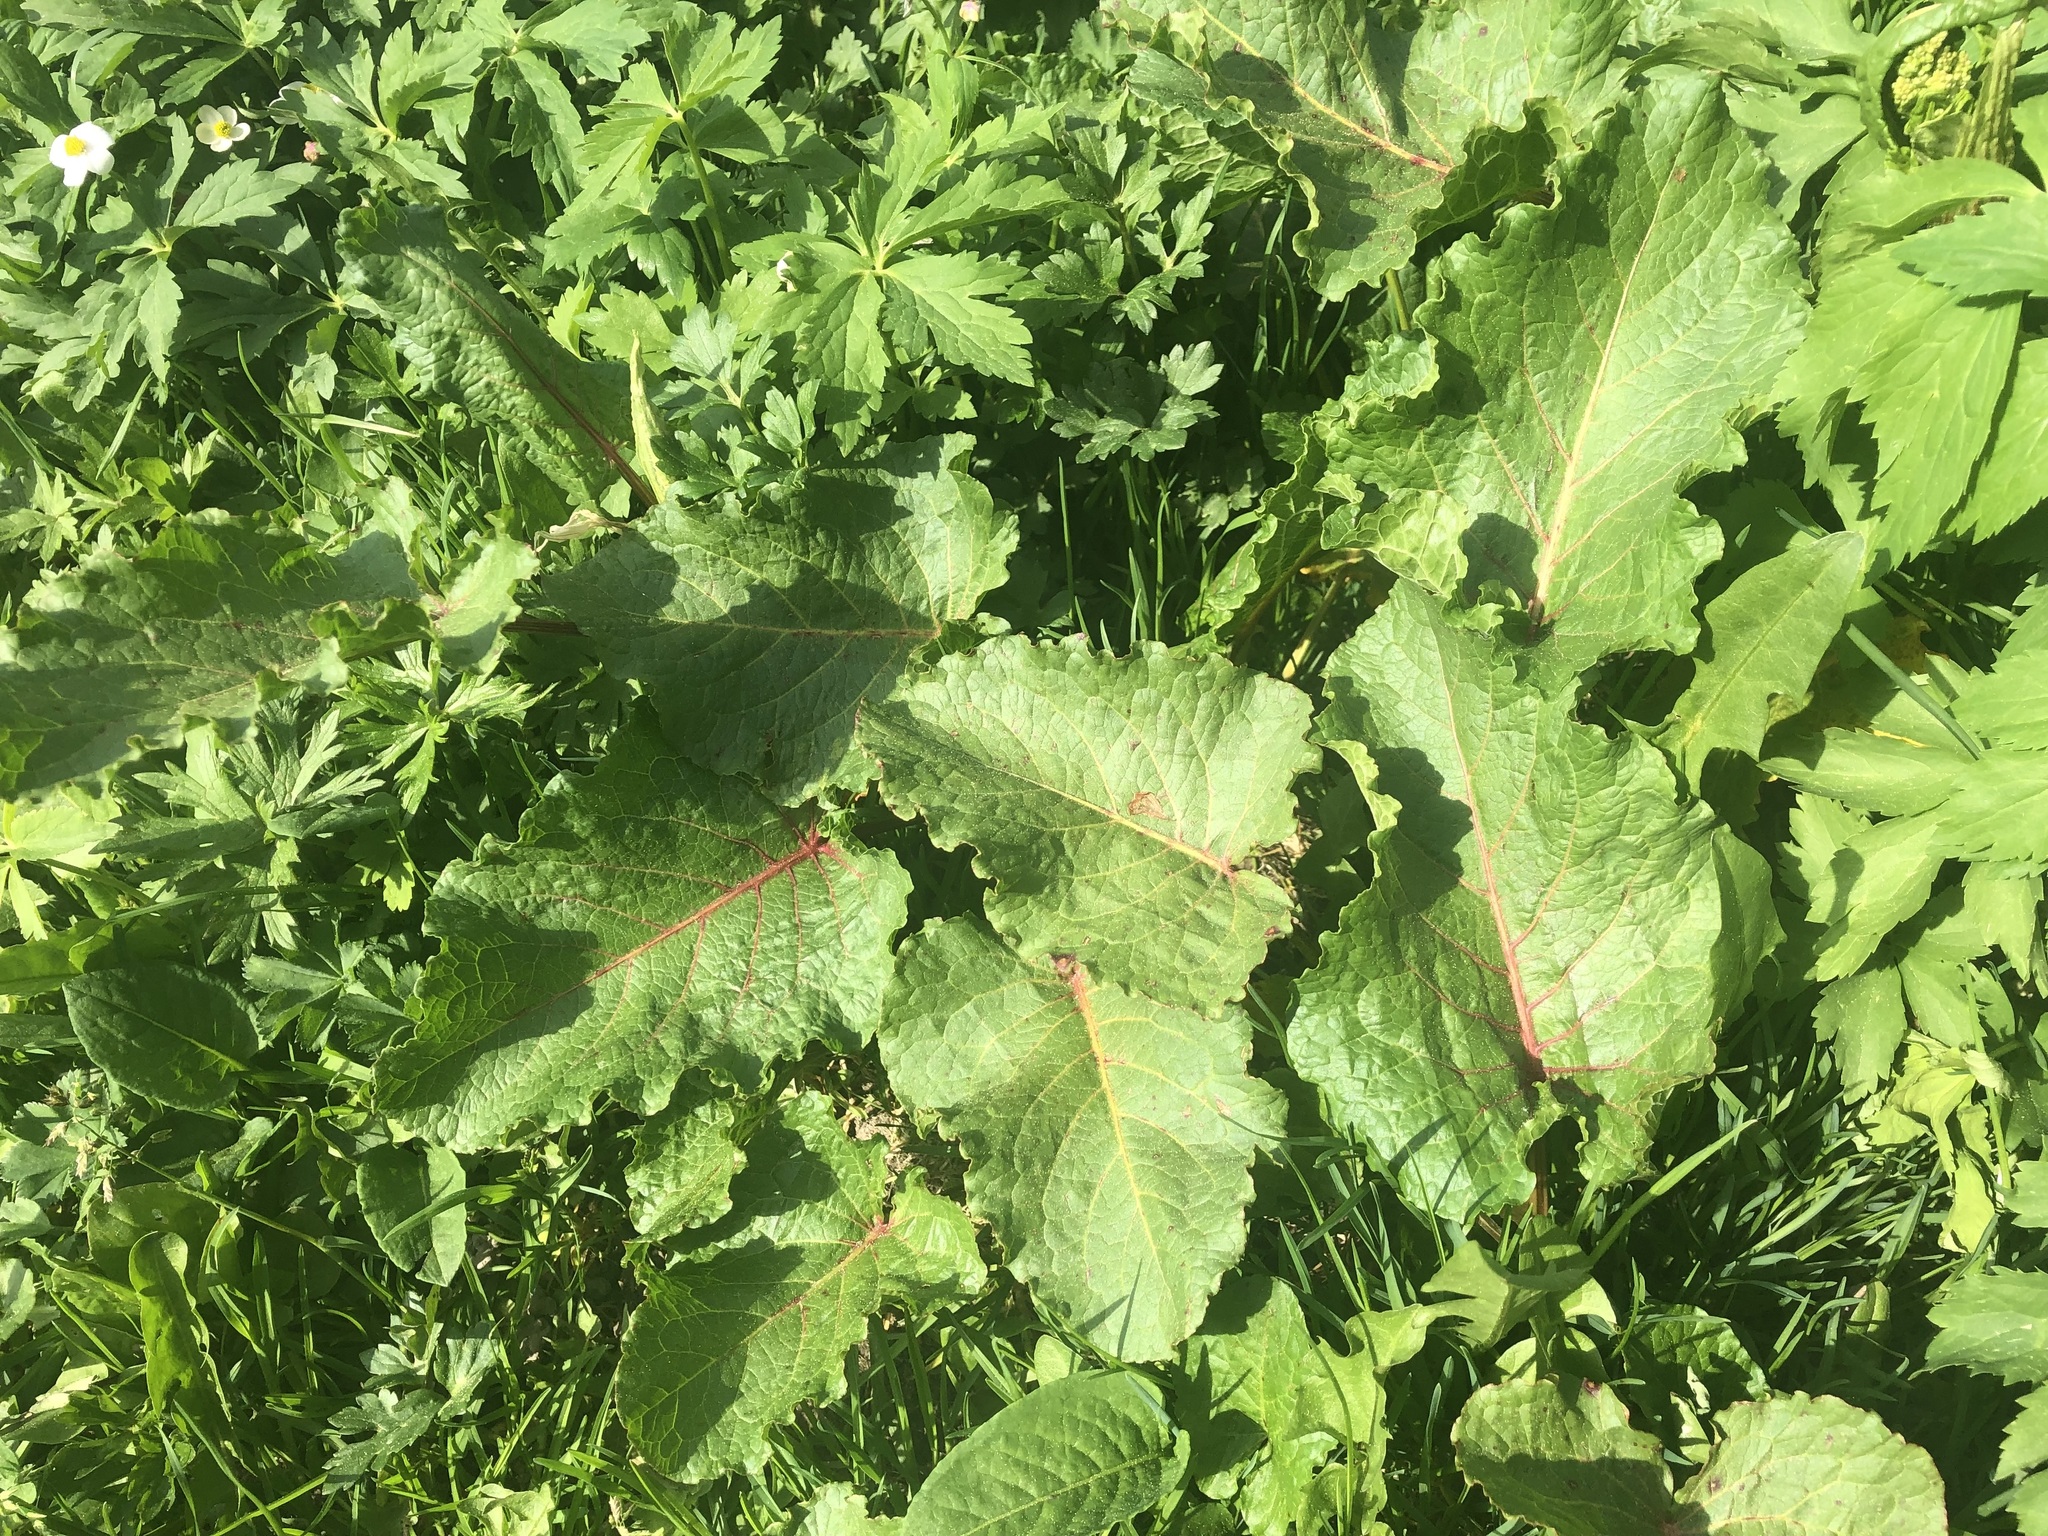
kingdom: Plantae
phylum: Tracheophyta
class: Magnoliopsida
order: Caryophyllales
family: Polygonaceae
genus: Rumex
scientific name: Rumex alpinus
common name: Alpine dock
